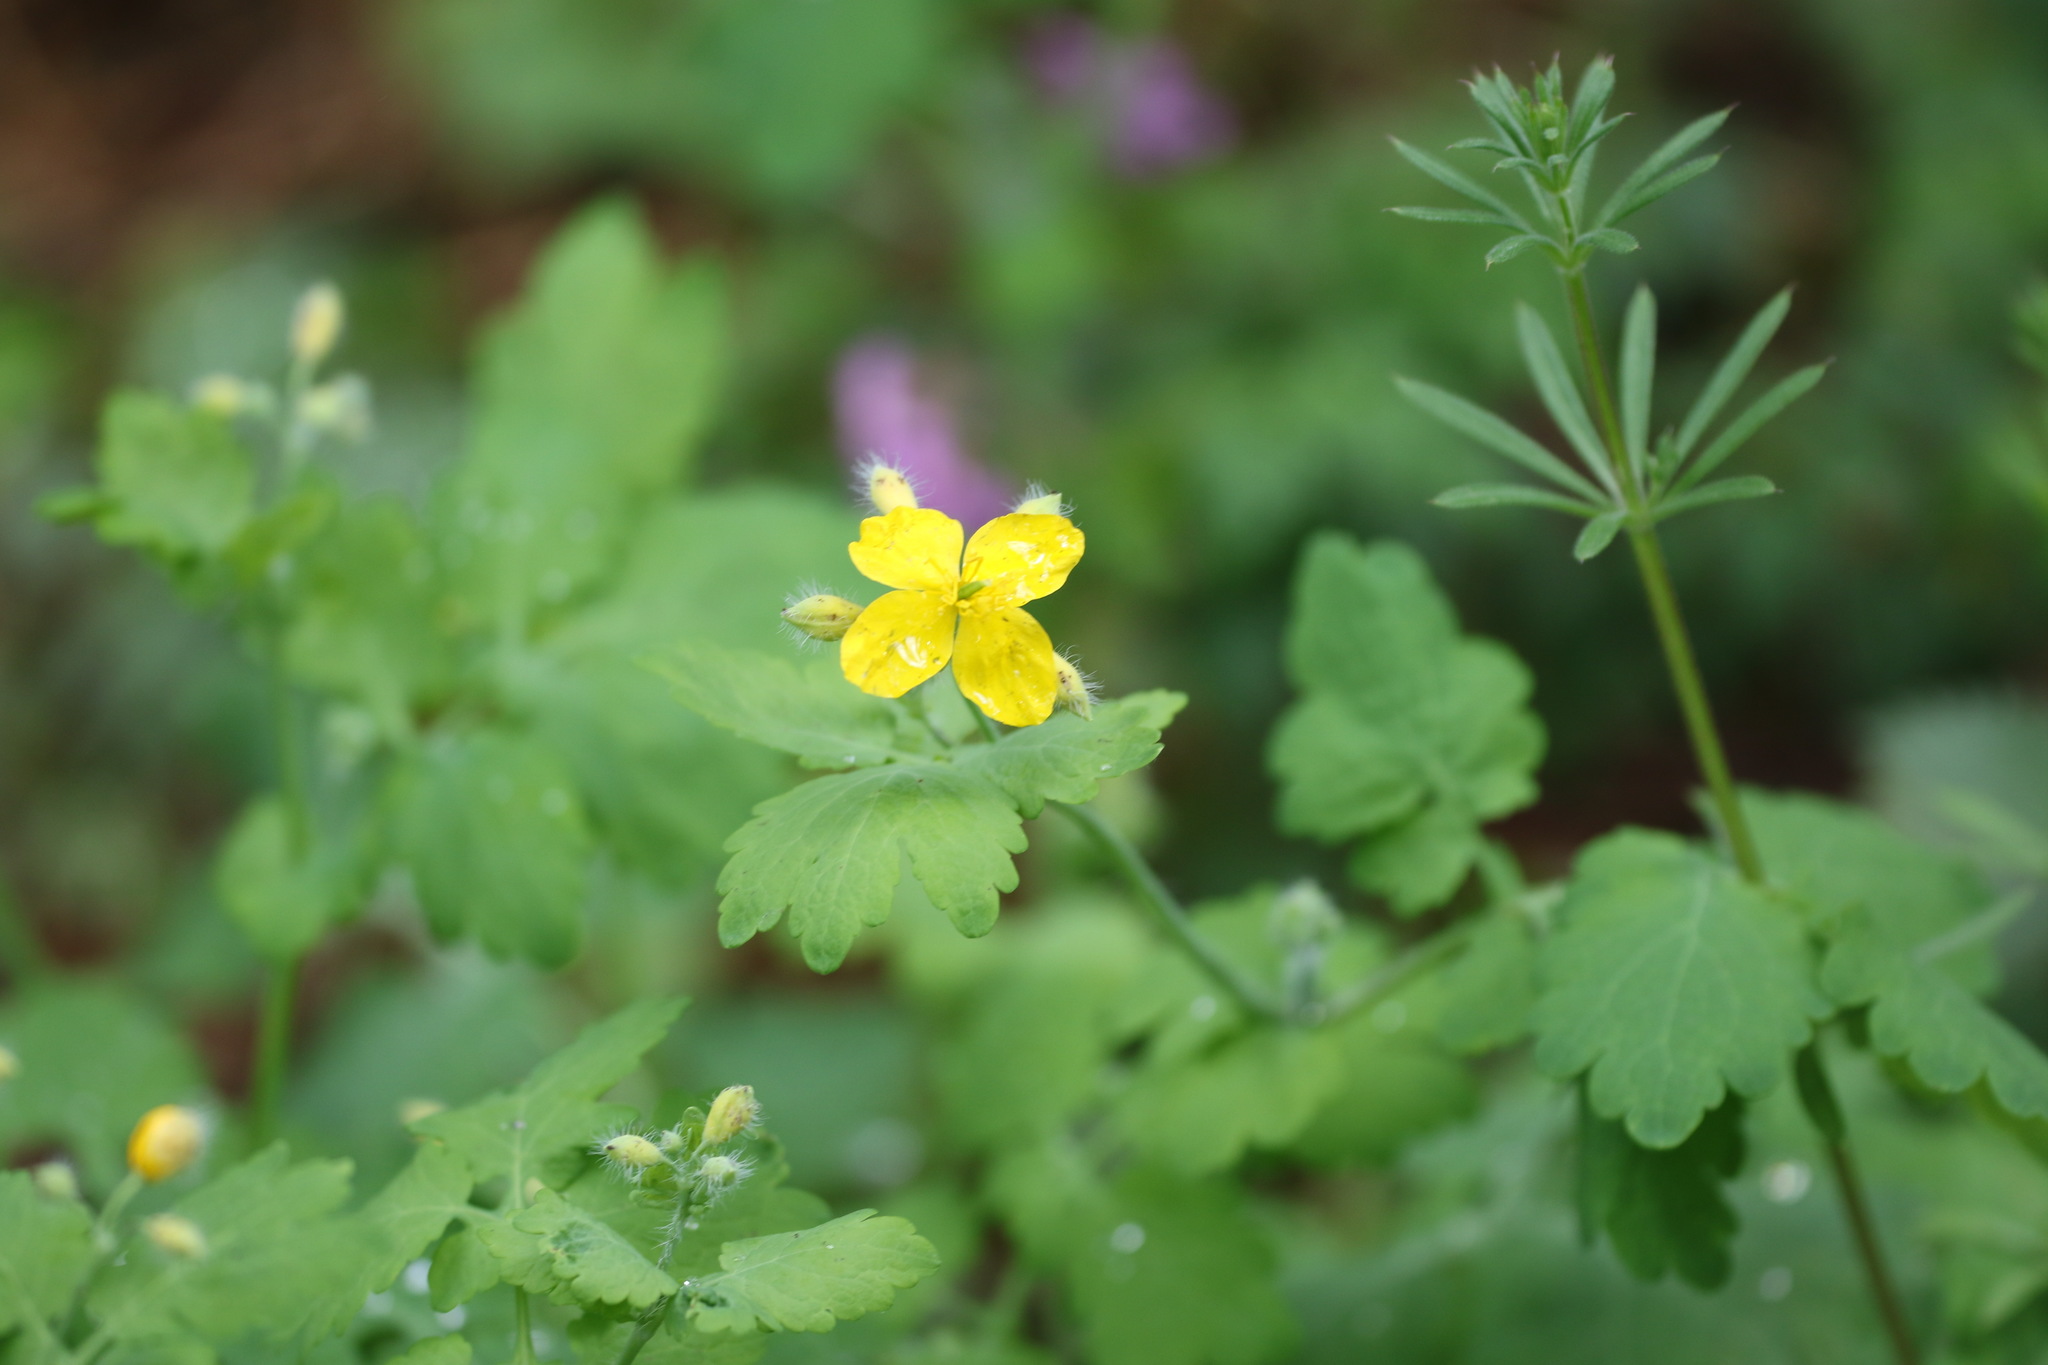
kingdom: Plantae
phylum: Tracheophyta
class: Magnoliopsida
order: Ranunculales
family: Papaveraceae
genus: Chelidonium
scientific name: Chelidonium majus
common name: Greater celandine
